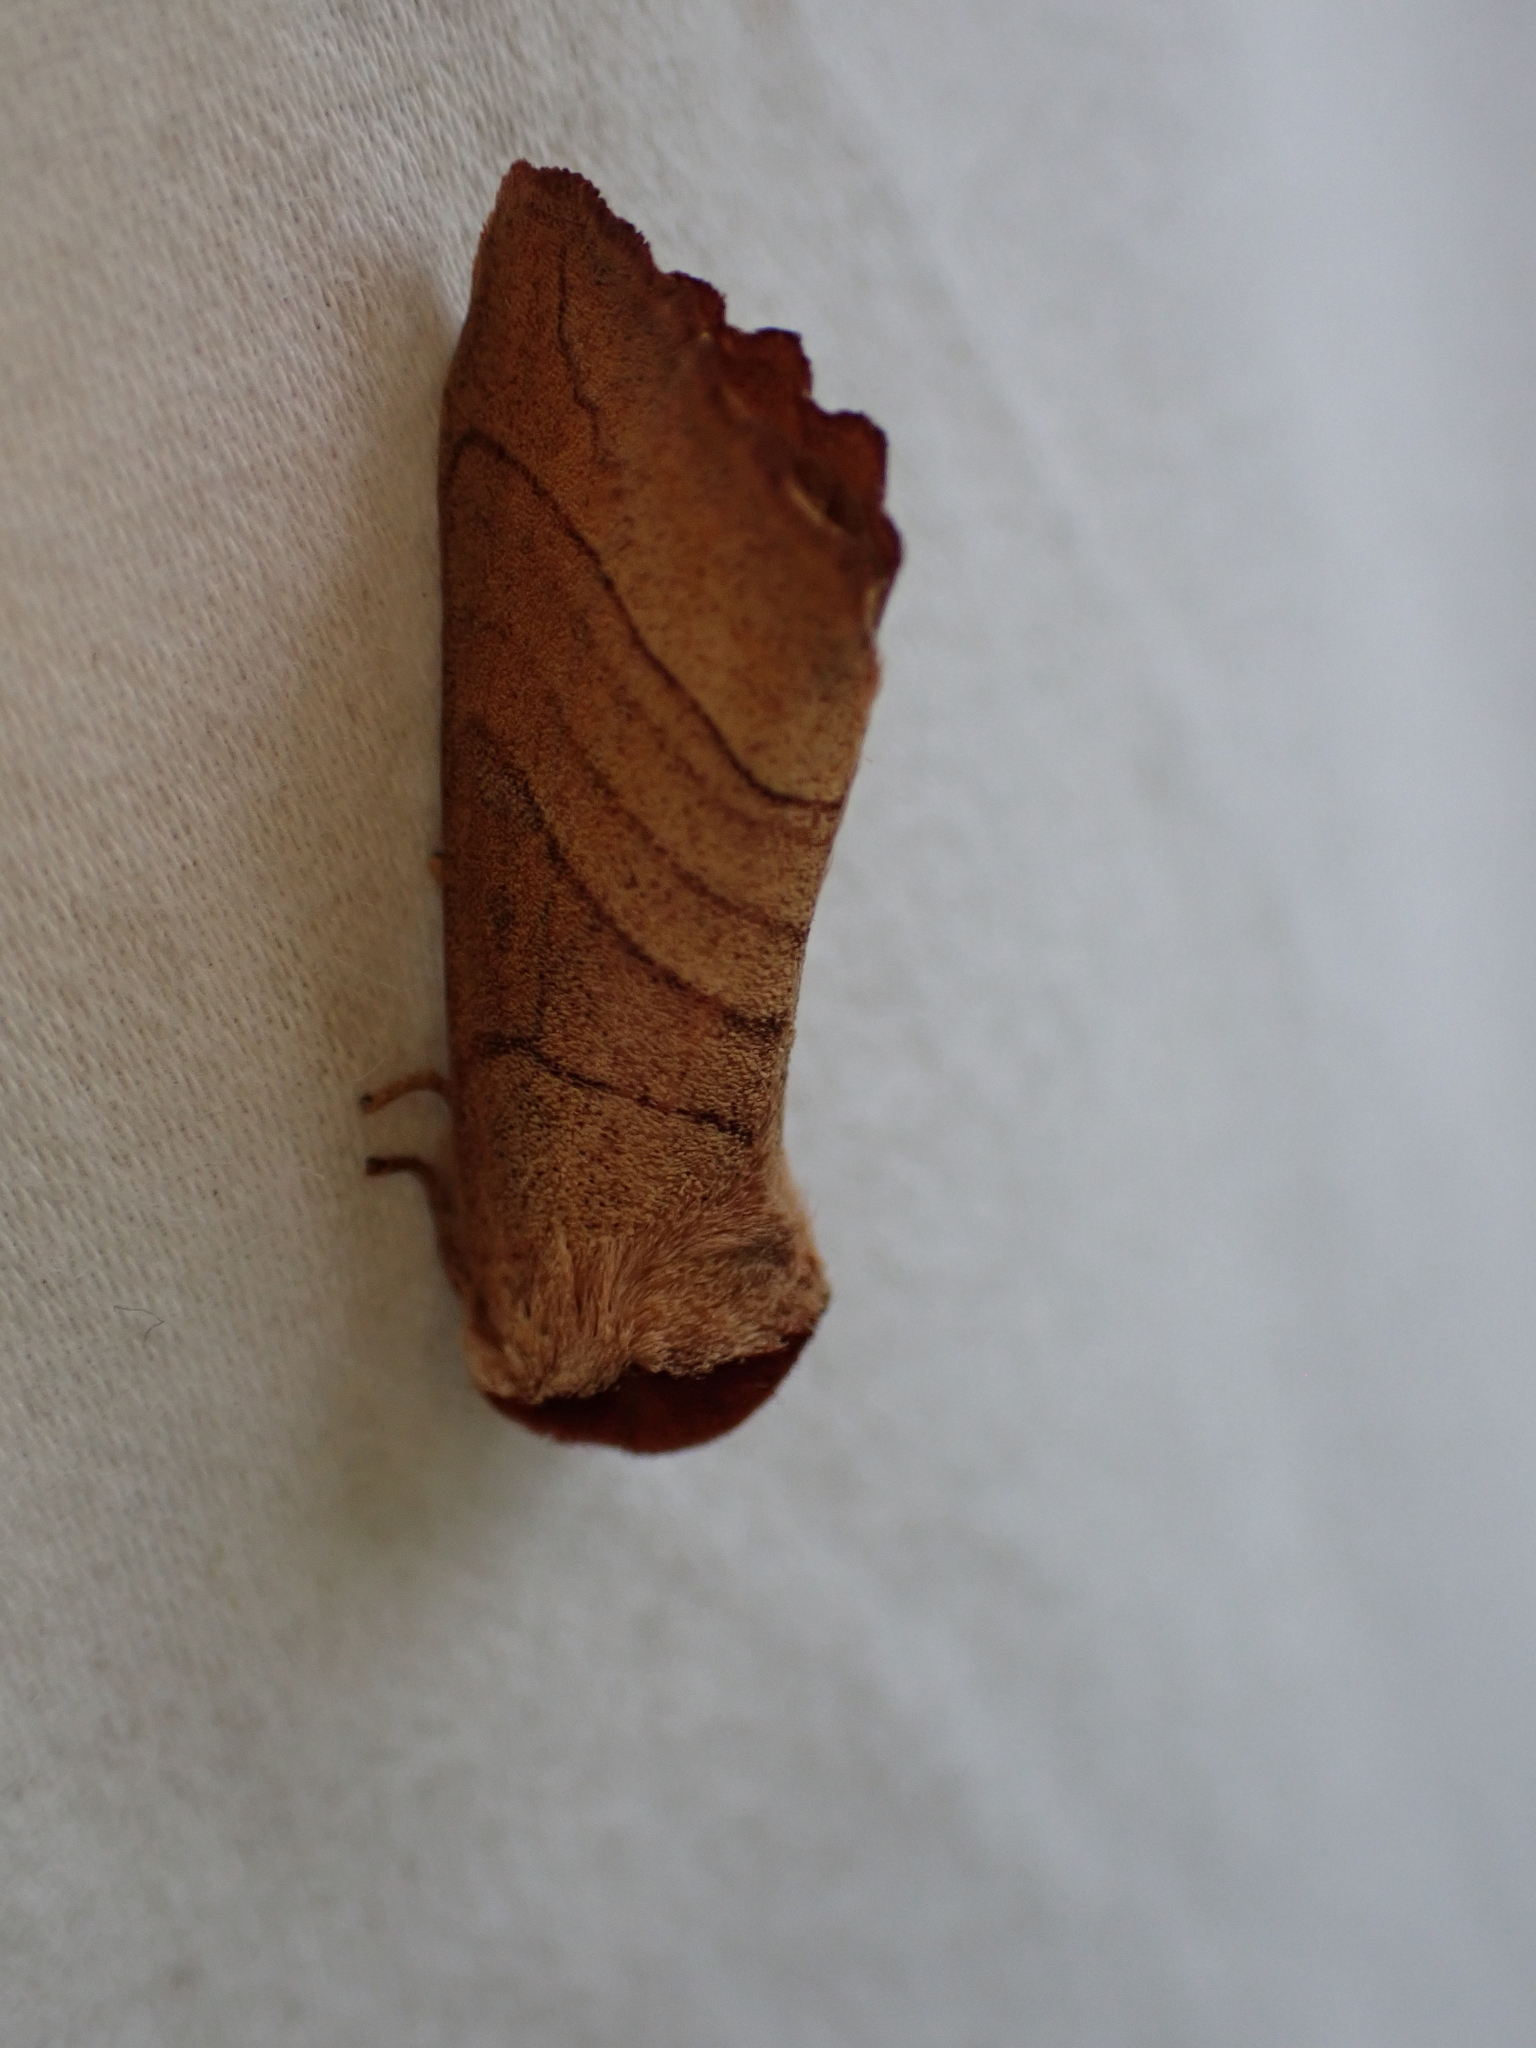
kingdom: Animalia
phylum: Arthropoda
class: Insecta
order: Lepidoptera
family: Notodontidae
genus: Datana
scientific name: Datana
